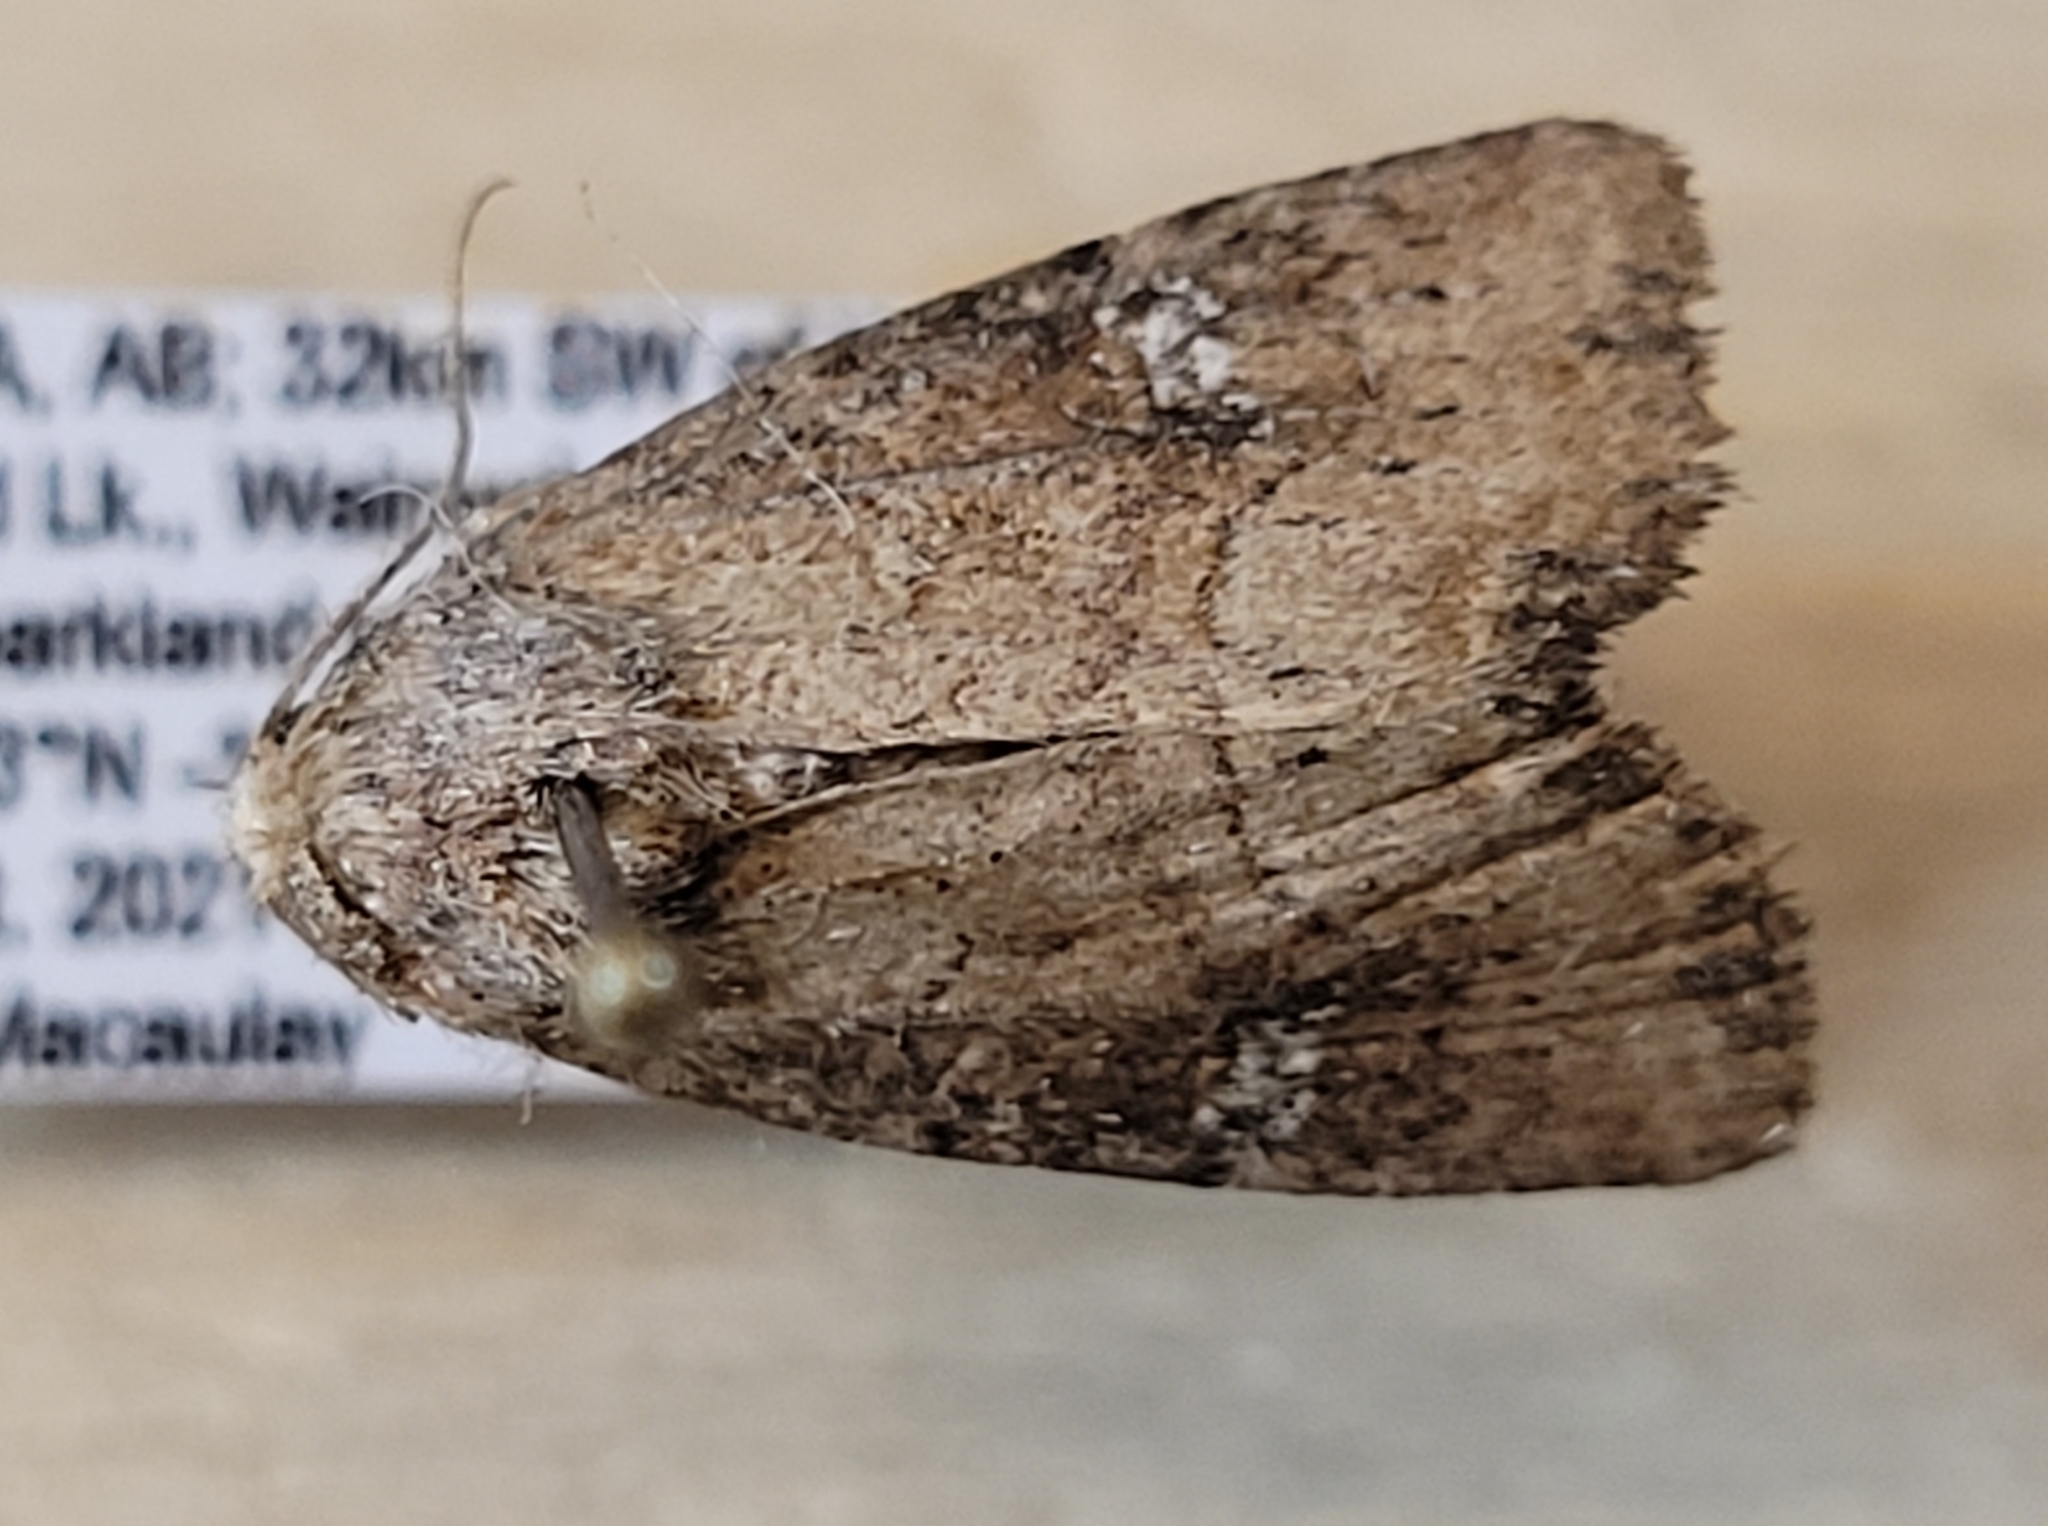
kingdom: Animalia
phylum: Arthropoda
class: Insecta
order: Lepidoptera
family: Noctuidae
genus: Mesapamea
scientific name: Mesapamea fractilinea
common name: Broken-lined brocade moth
